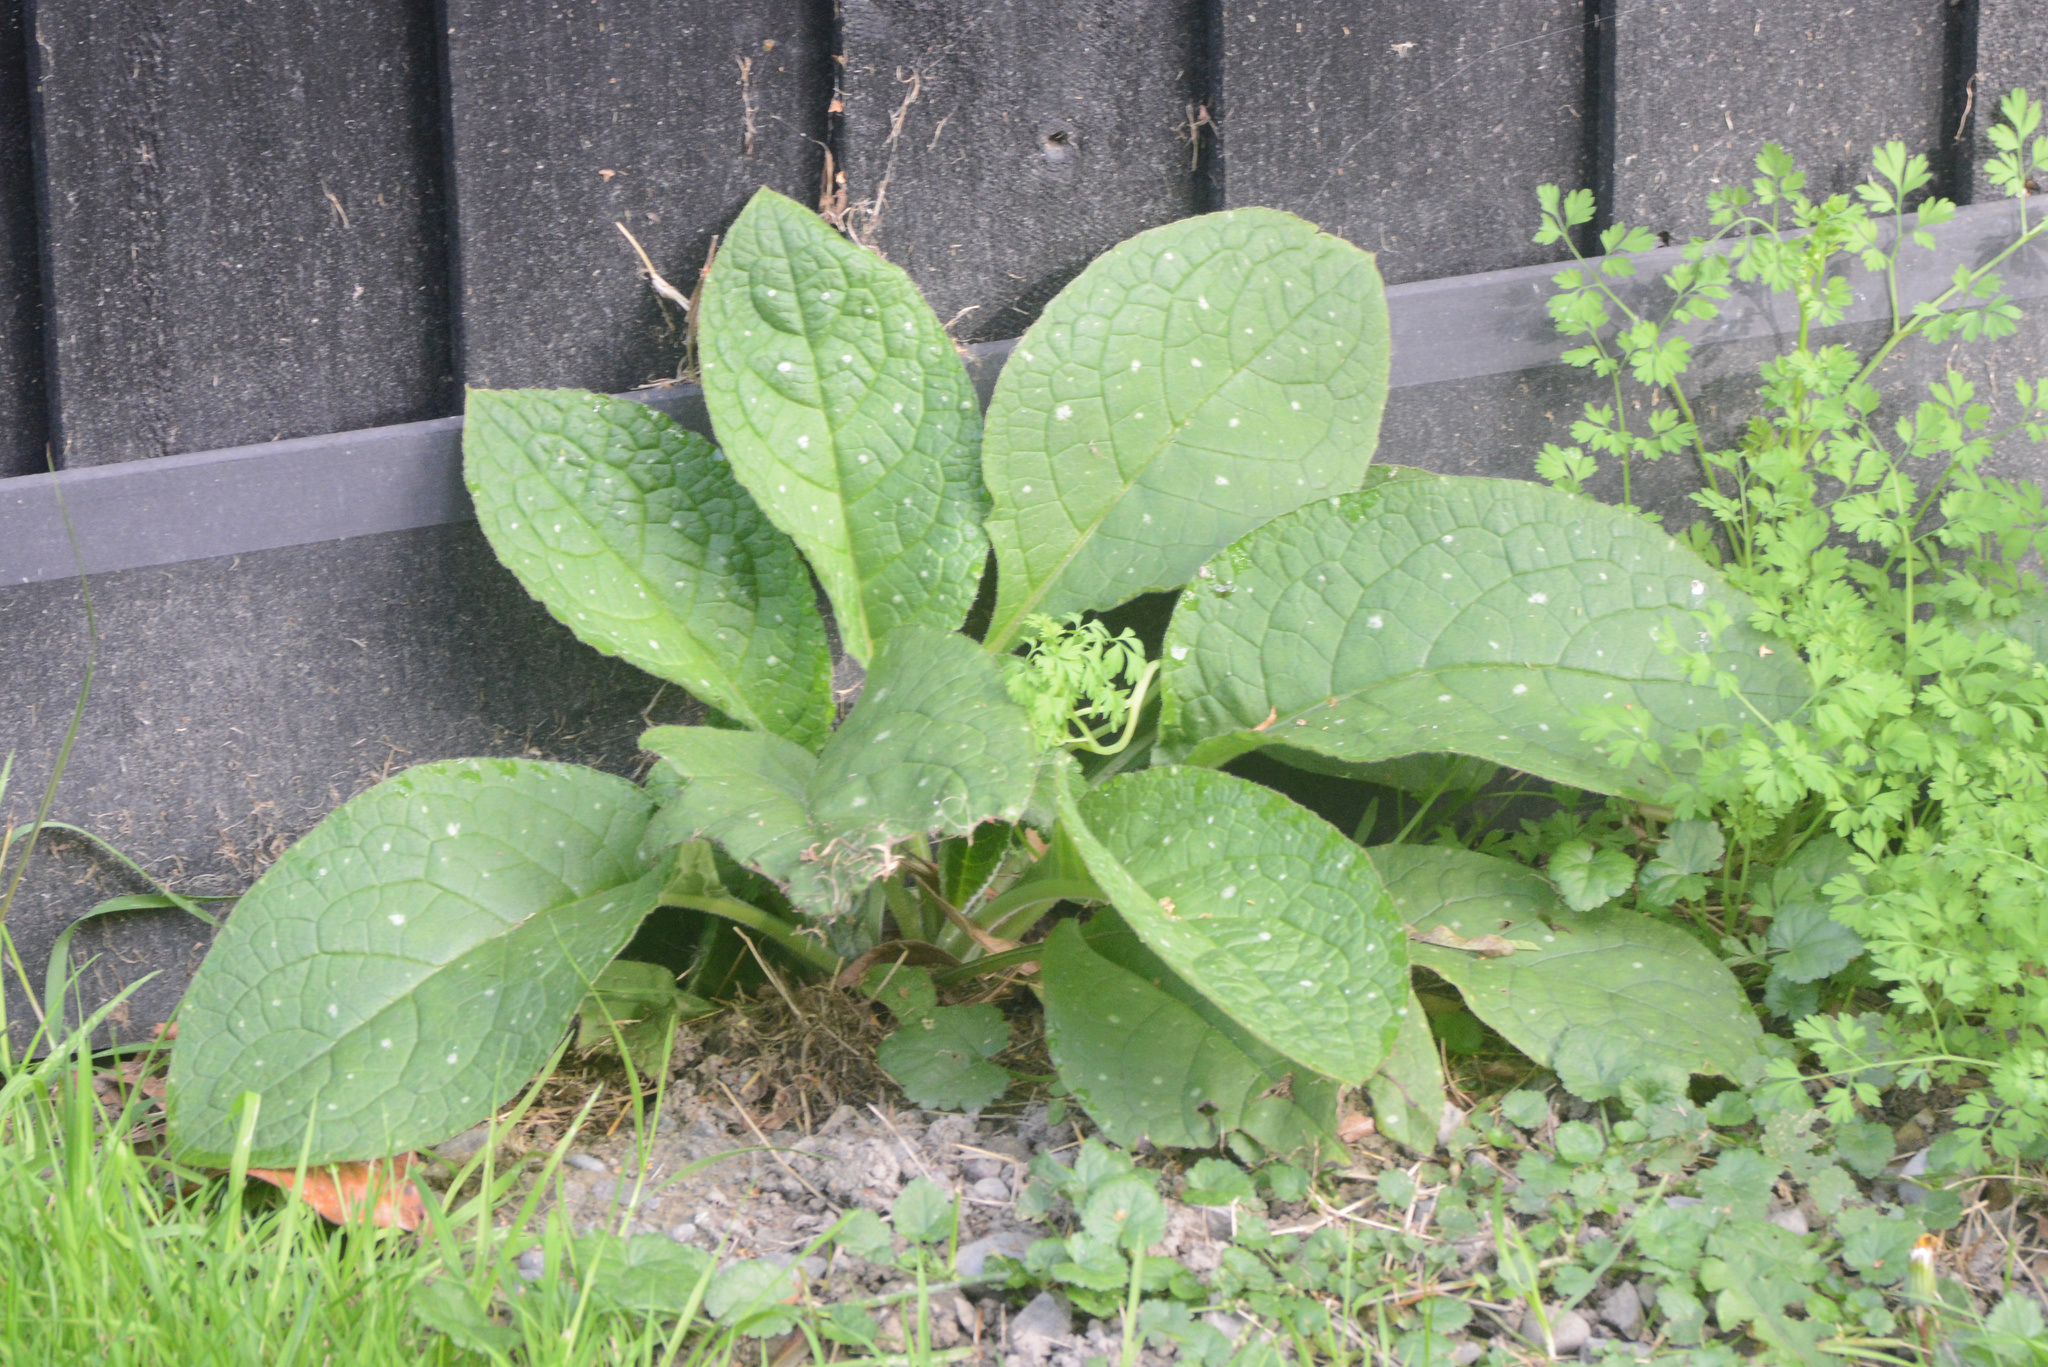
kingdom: Plantae
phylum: Tracheophyta
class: Magnoliopsida
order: Boraginales
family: Boraginaceae
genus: Borago
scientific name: Borago officinalis
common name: Borage
